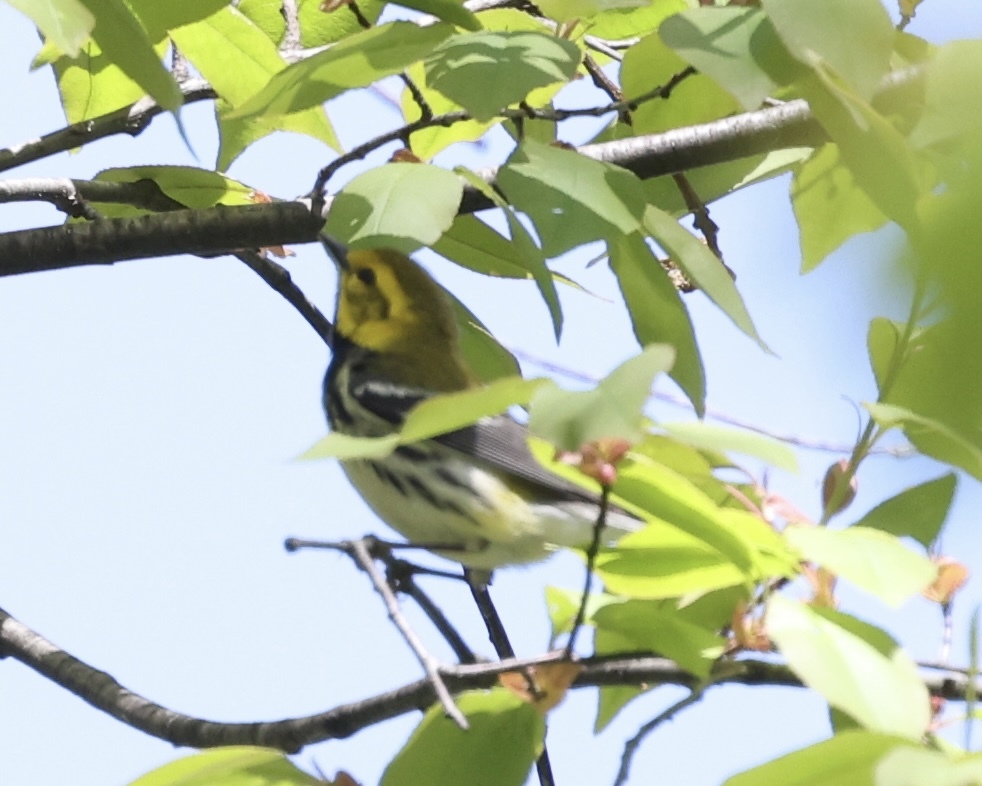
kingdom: Animalia
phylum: Chordata
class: Aves
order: Passeriformes
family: Parulidae
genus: Setophaga
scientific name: Setophaga virens
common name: Black-throated green warbler
